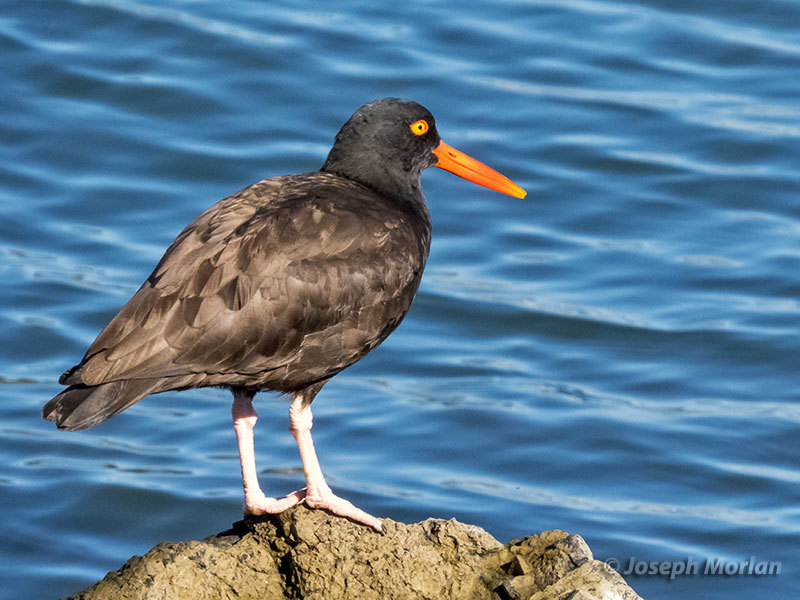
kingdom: Animalia
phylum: Chordata
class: Aves
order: Charadriiformes
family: Haematopodidae
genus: Haematopus
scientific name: Haematopus bachmani
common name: Black oystercatcher
